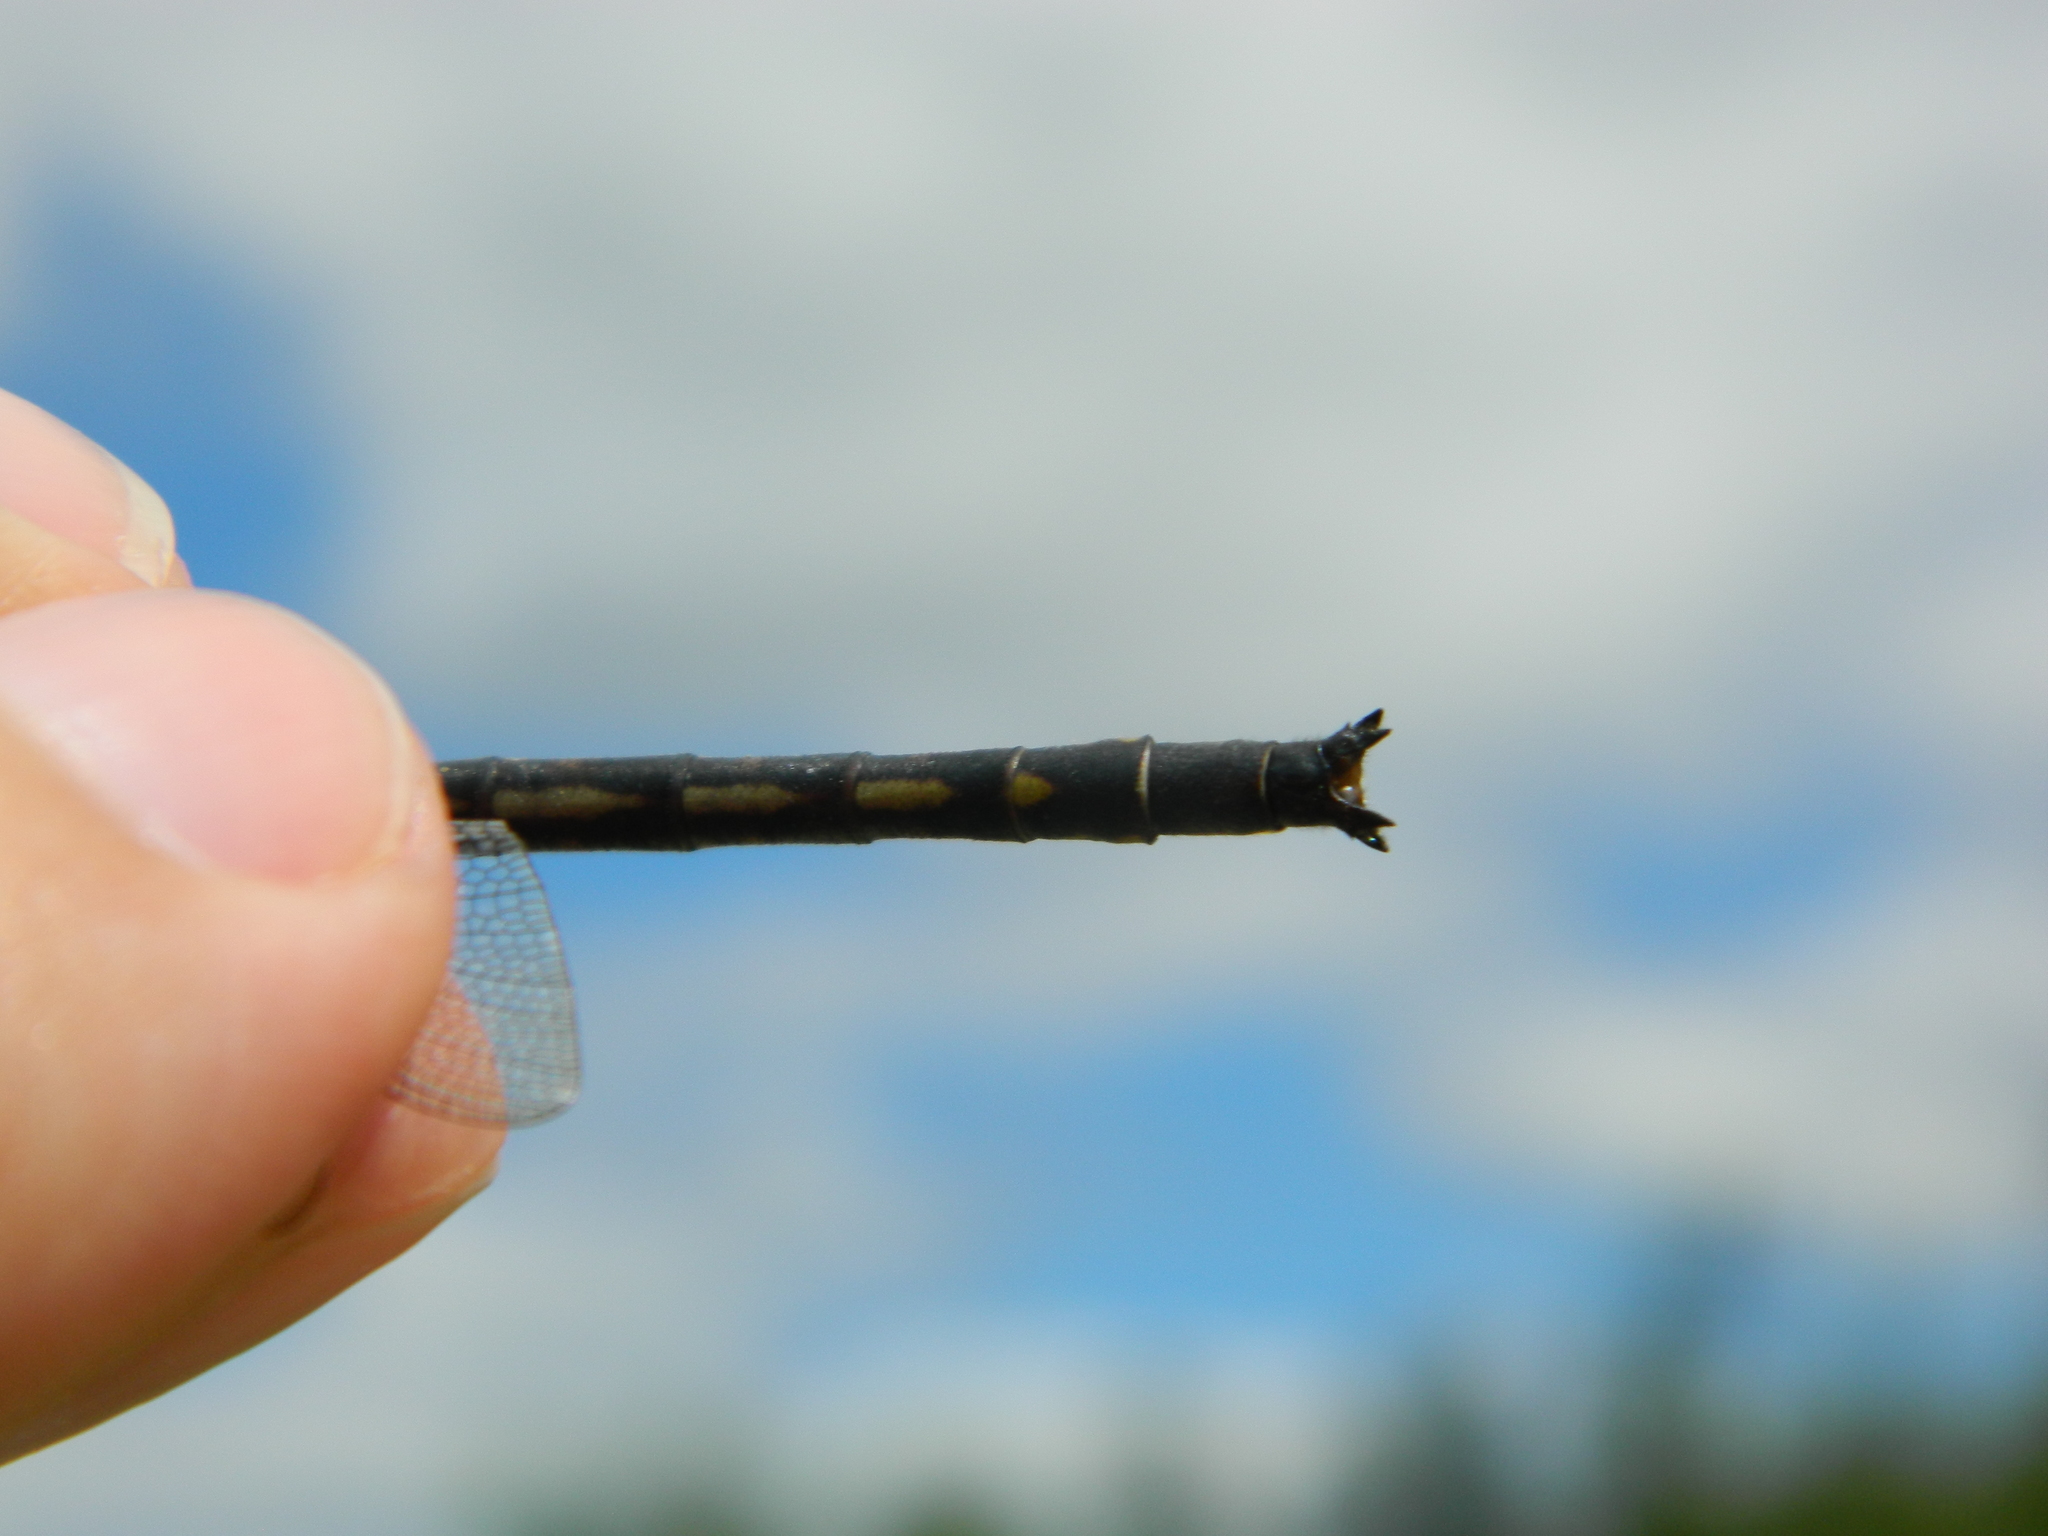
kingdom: Animalia
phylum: Arthropoda
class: Insecta
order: Odonata
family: Gomphidae
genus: Phanogomphus
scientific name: Phanogomphus spicatus
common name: Dusky clubtail
